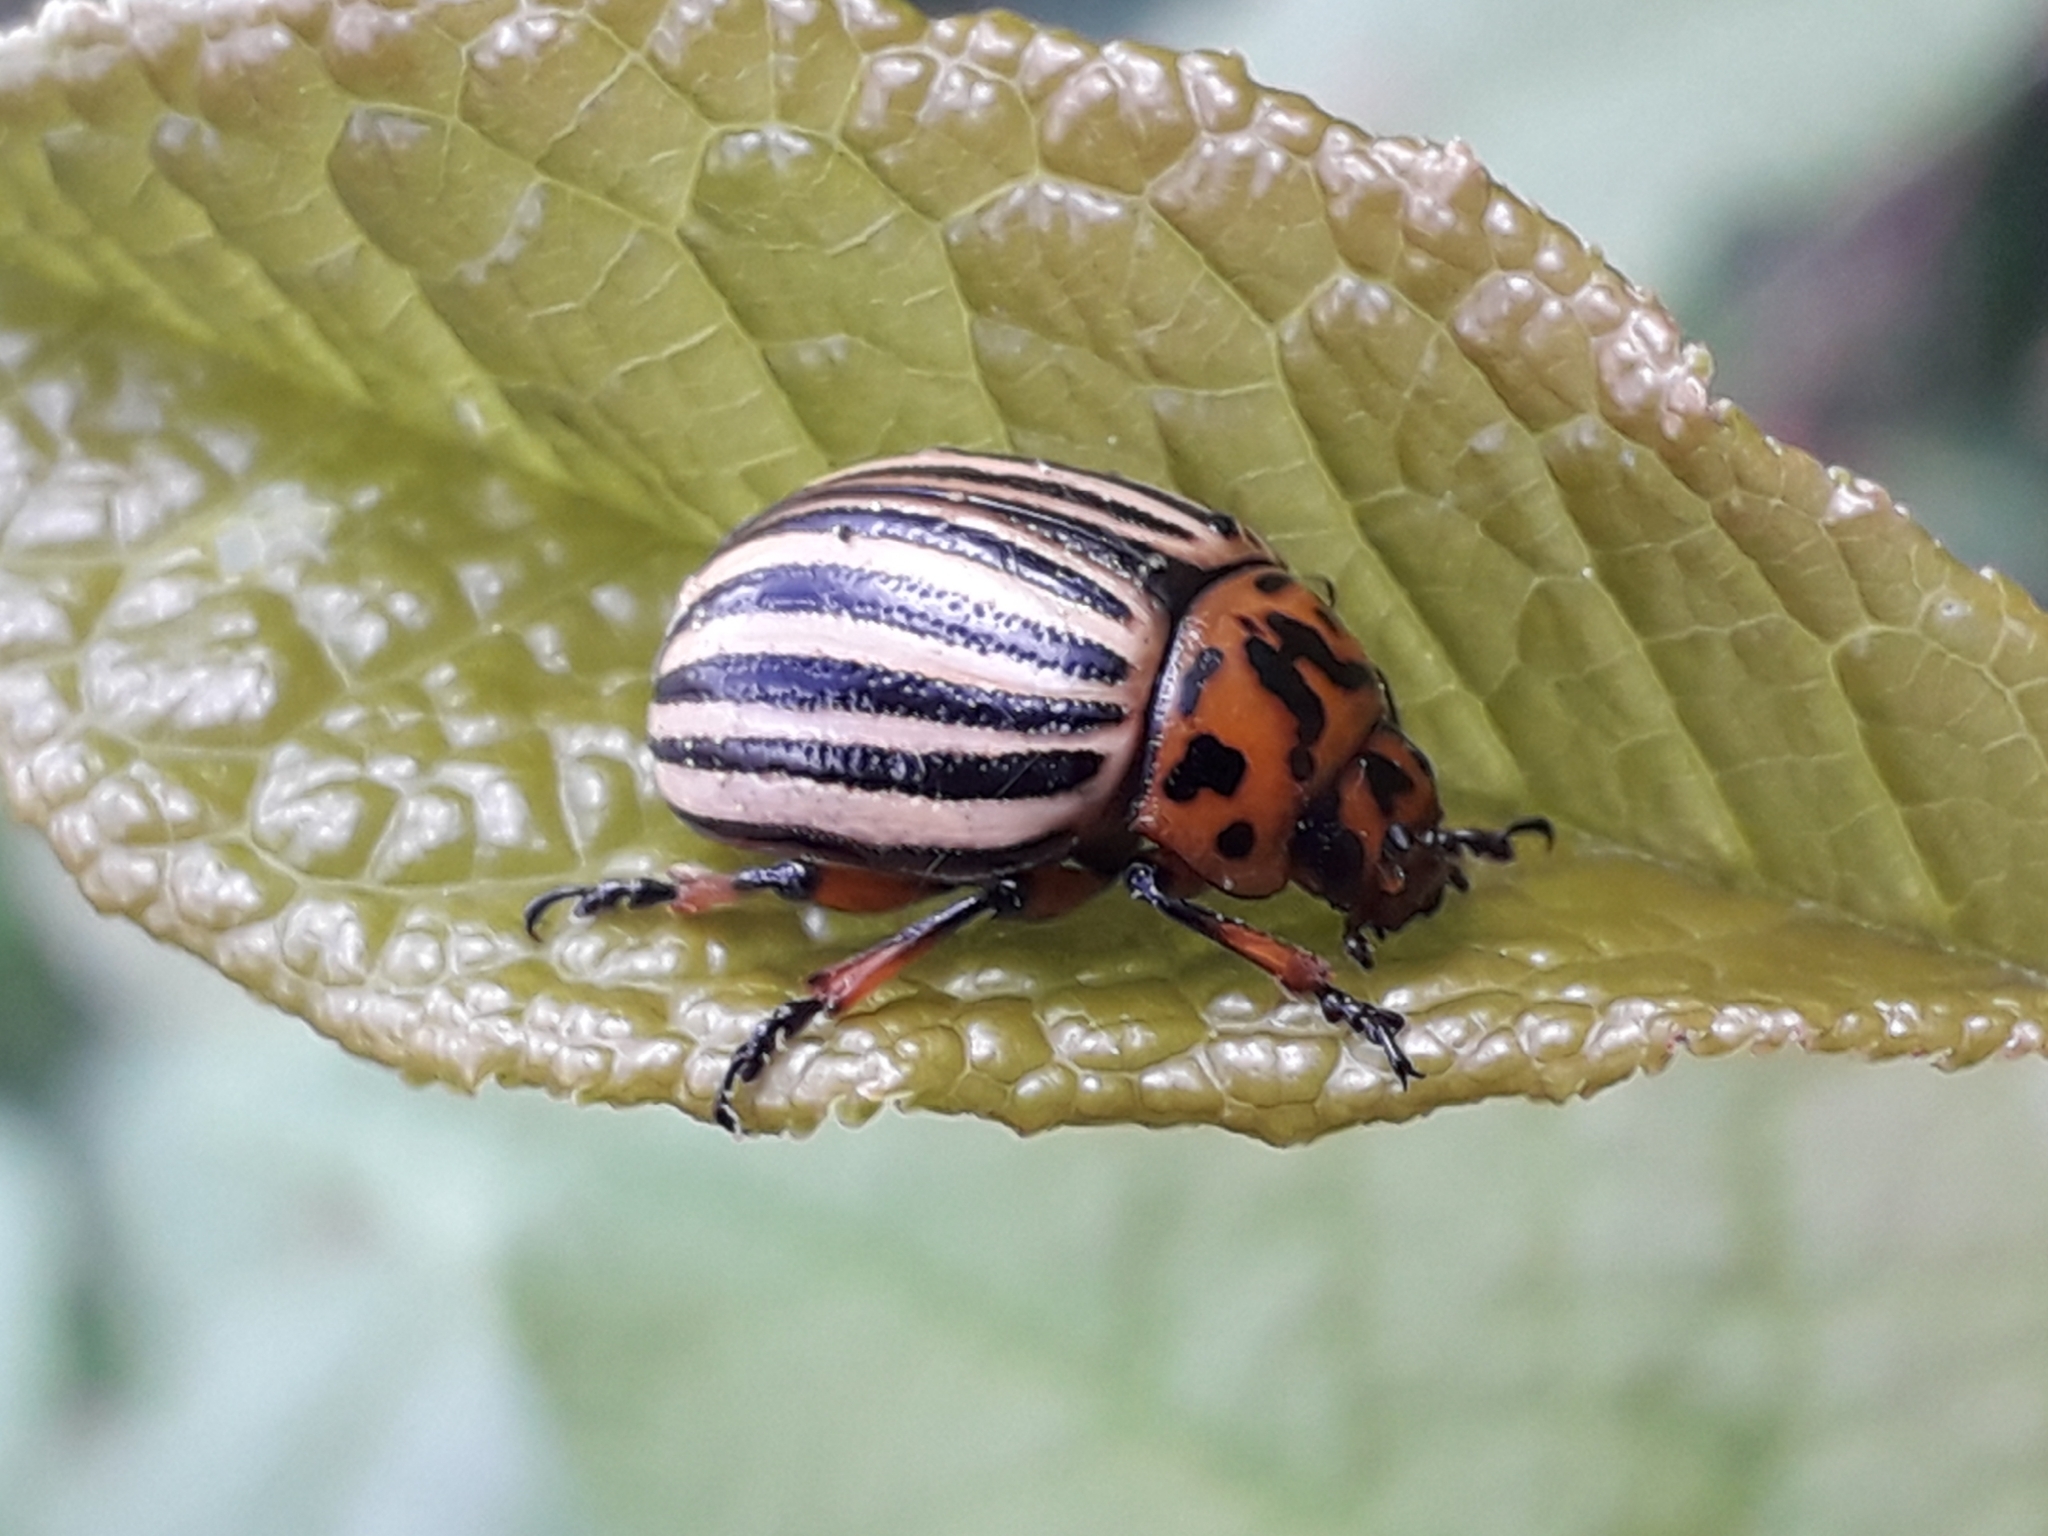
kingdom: Animalia
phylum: Arthropoda
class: Insecta
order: Coleoptera
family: Chrysomelidae
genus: Leptinotarsa
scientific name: Leptinotarsa decemlineata
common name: Colorado potato beetle
